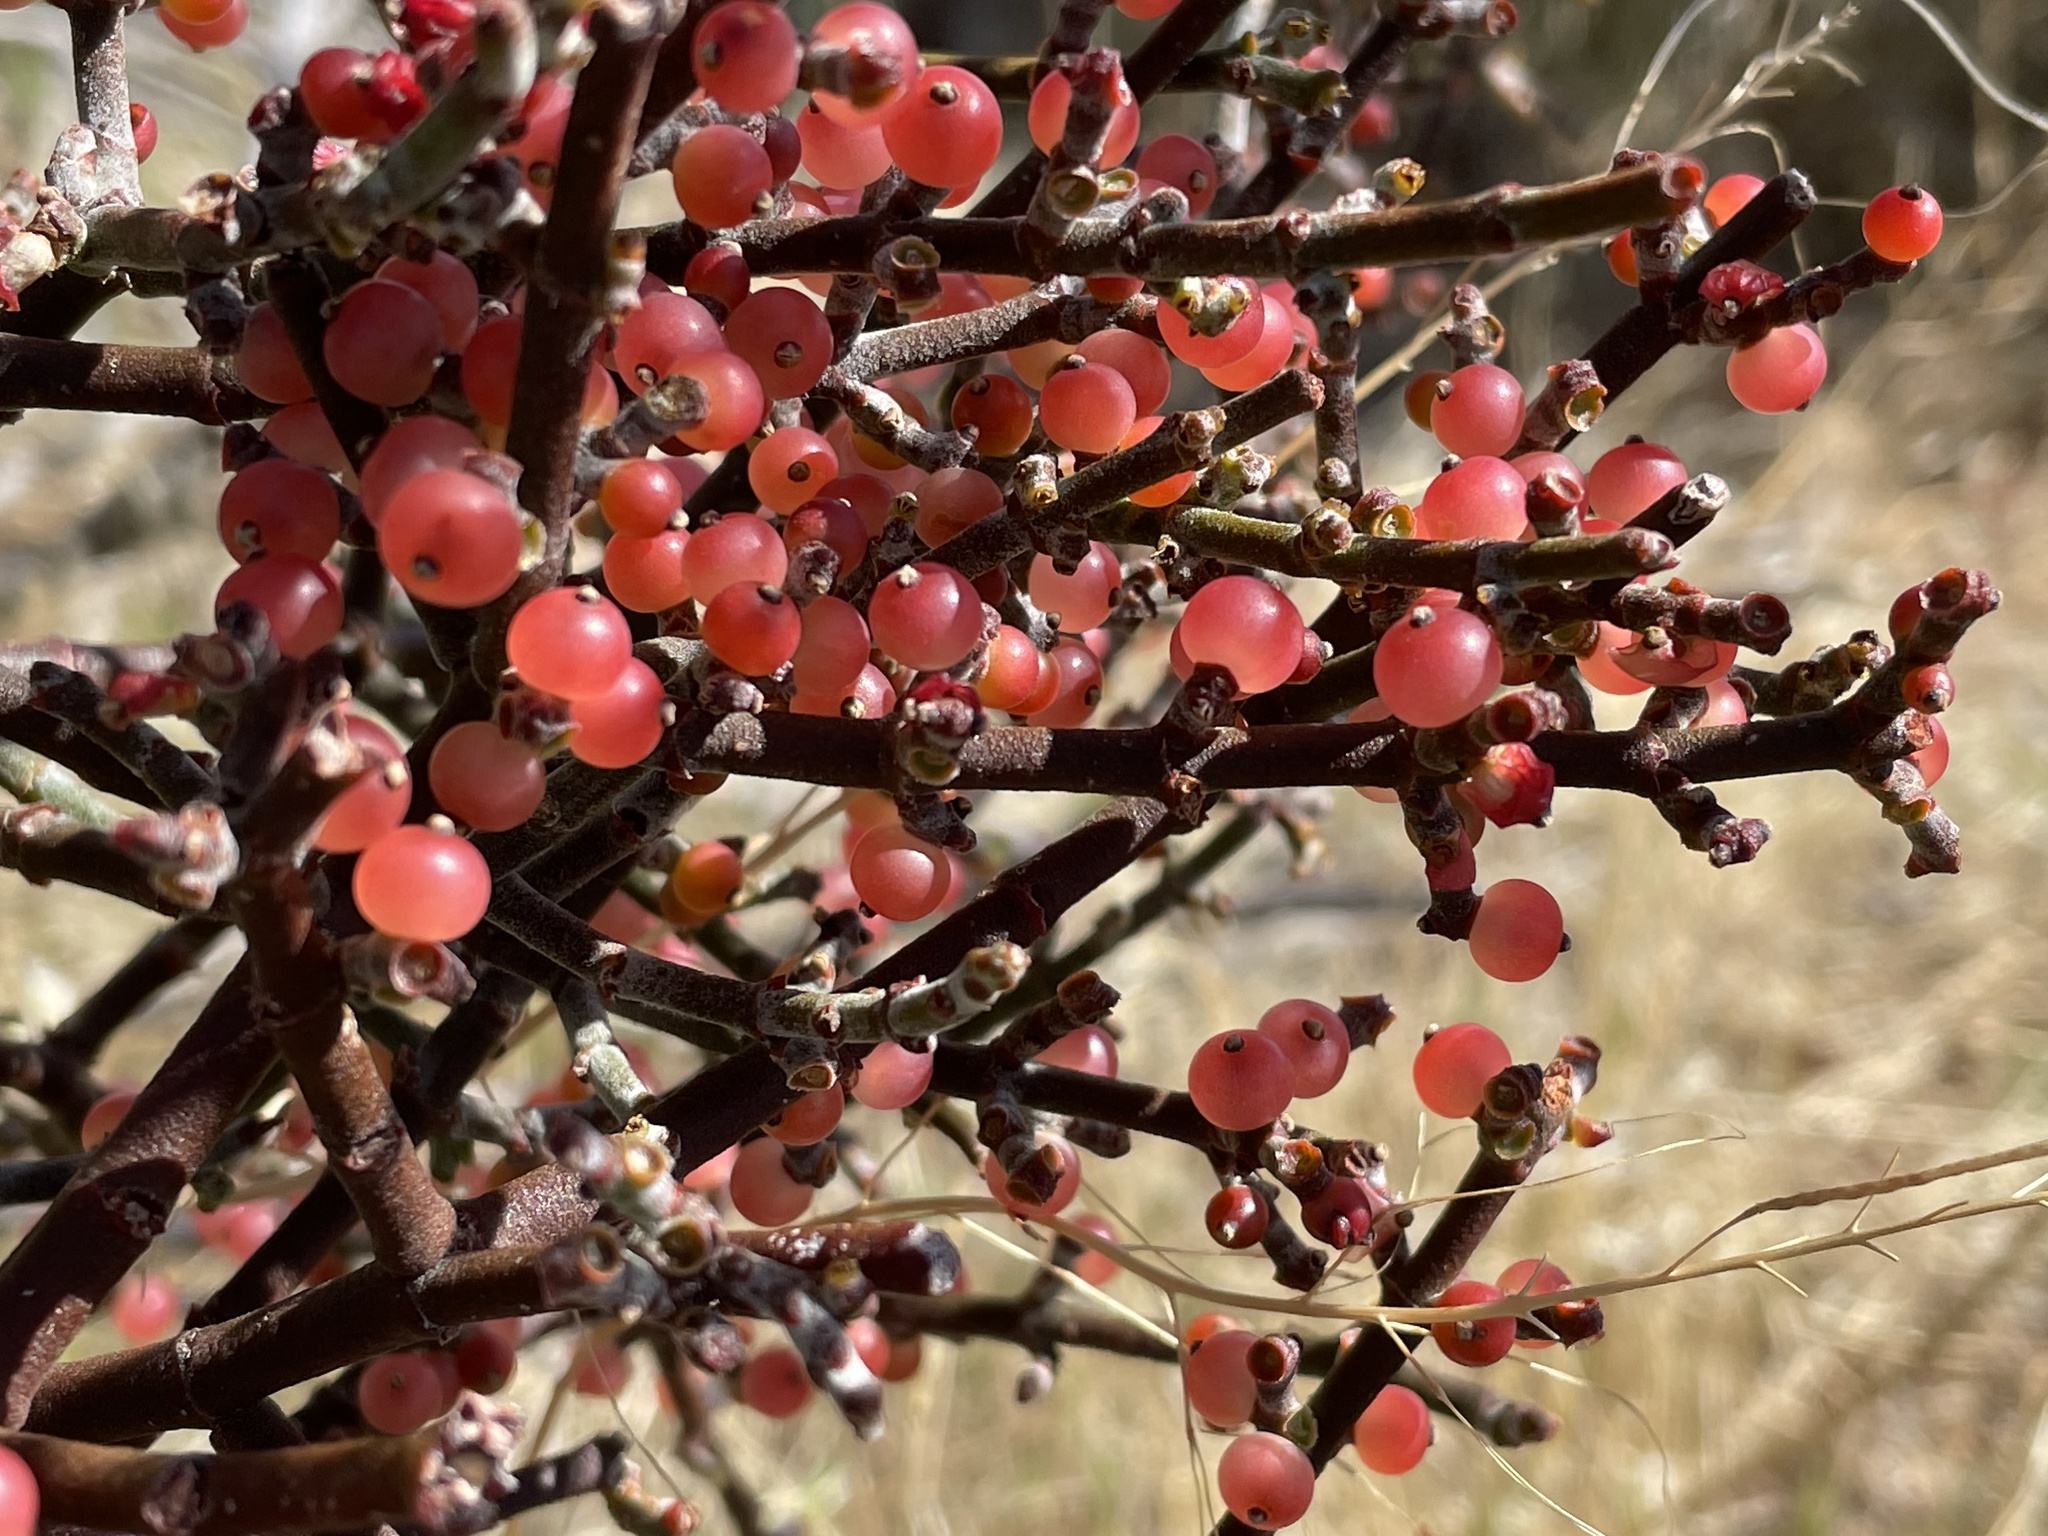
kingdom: Plantae
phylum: Tracheophyta
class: Magnoliopsida
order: Santalales
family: Viscaceae
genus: Phoradendron
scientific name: Phoradendron californicum
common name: Acacia mistletoe
